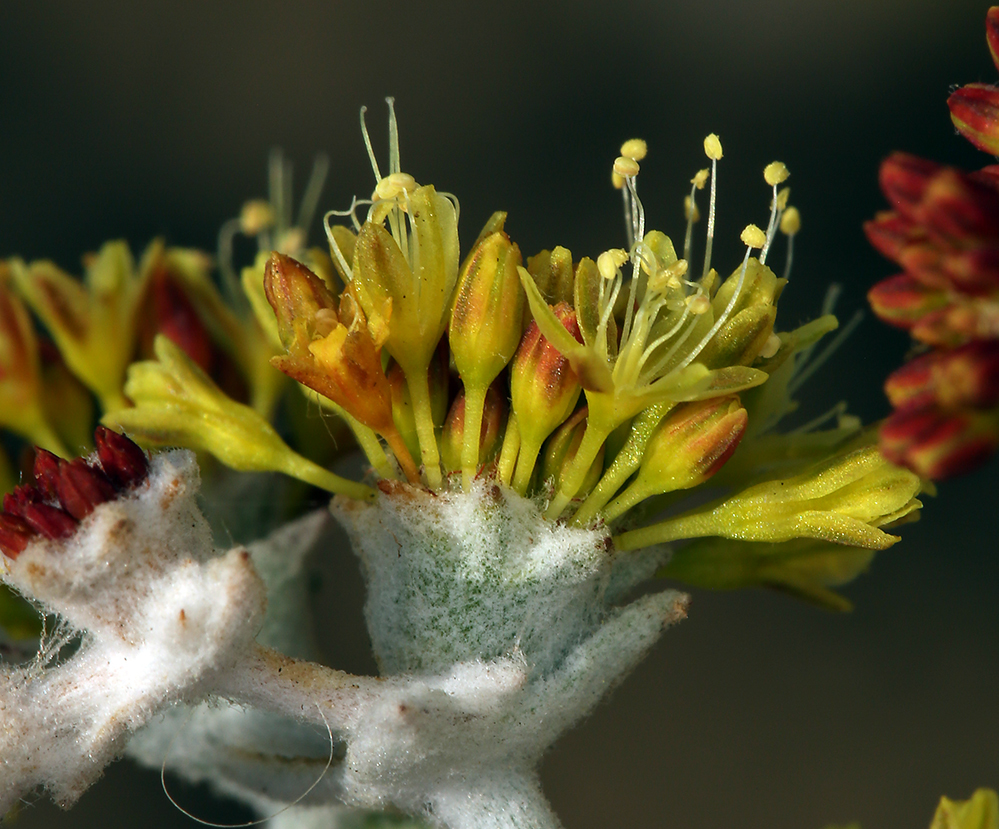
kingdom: Plantae
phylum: Tracheophyta
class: Magnoliopsida
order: Caryophyllales
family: Polygonaceae
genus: Eriogonum
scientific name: Eriogonum crocatum
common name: Saffron wild buckwheat
